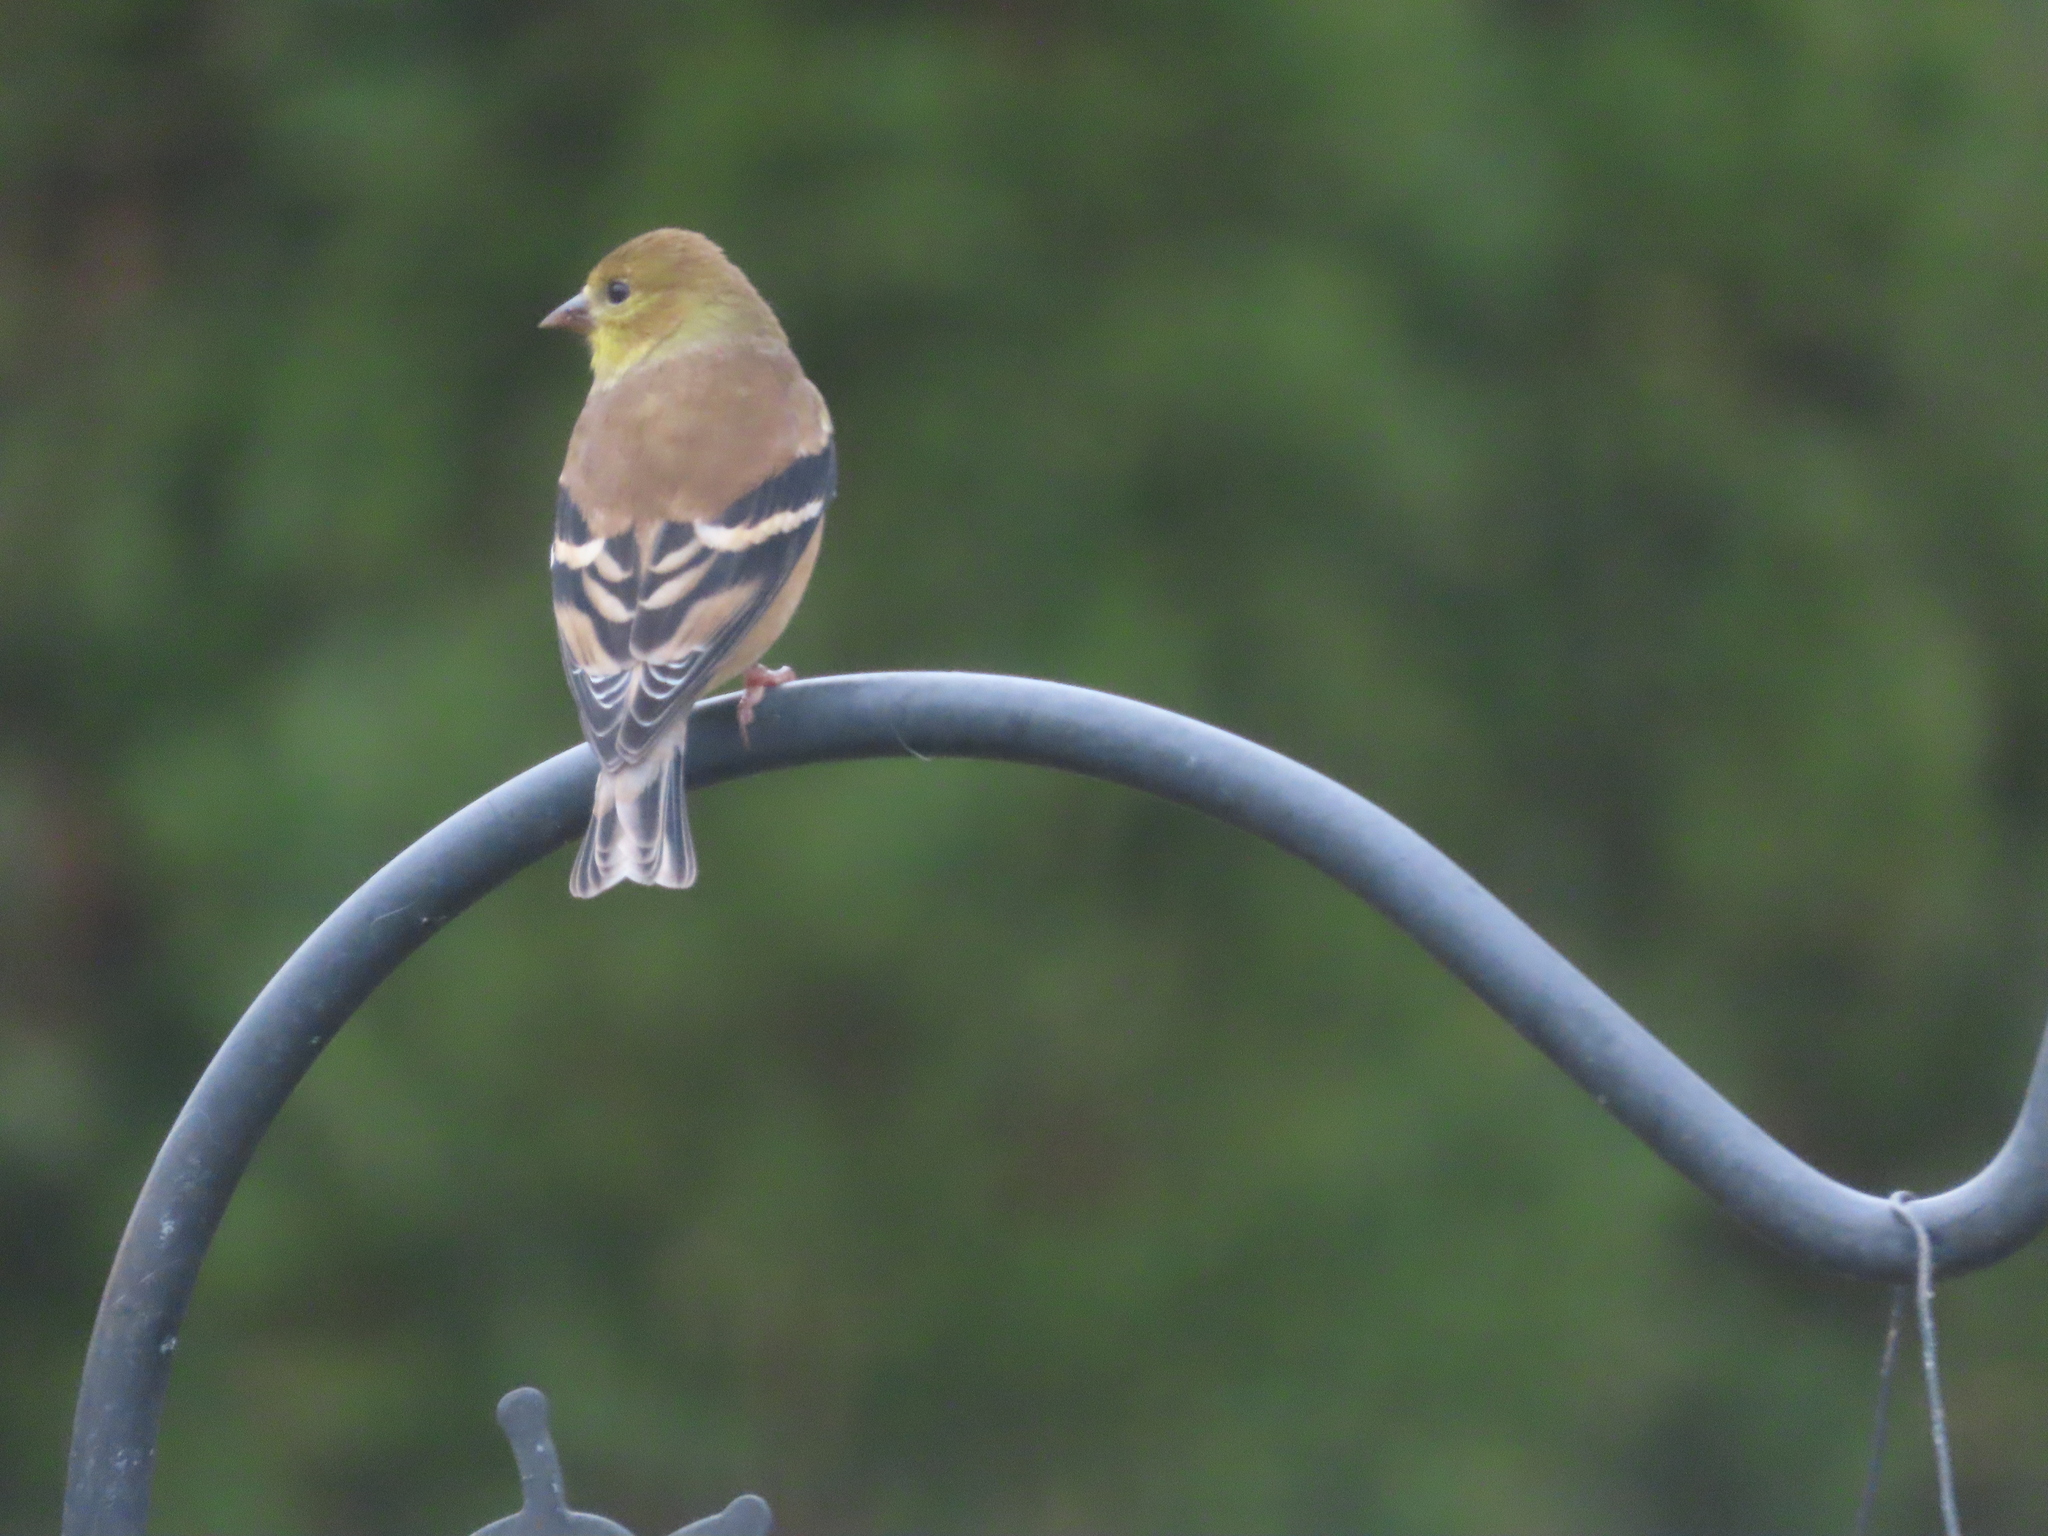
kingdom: Animalia
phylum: Chordata
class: Aves
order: Passeriformes
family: Fringillidae
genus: Spinus
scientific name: Spinus tristis
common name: American goldfinch
